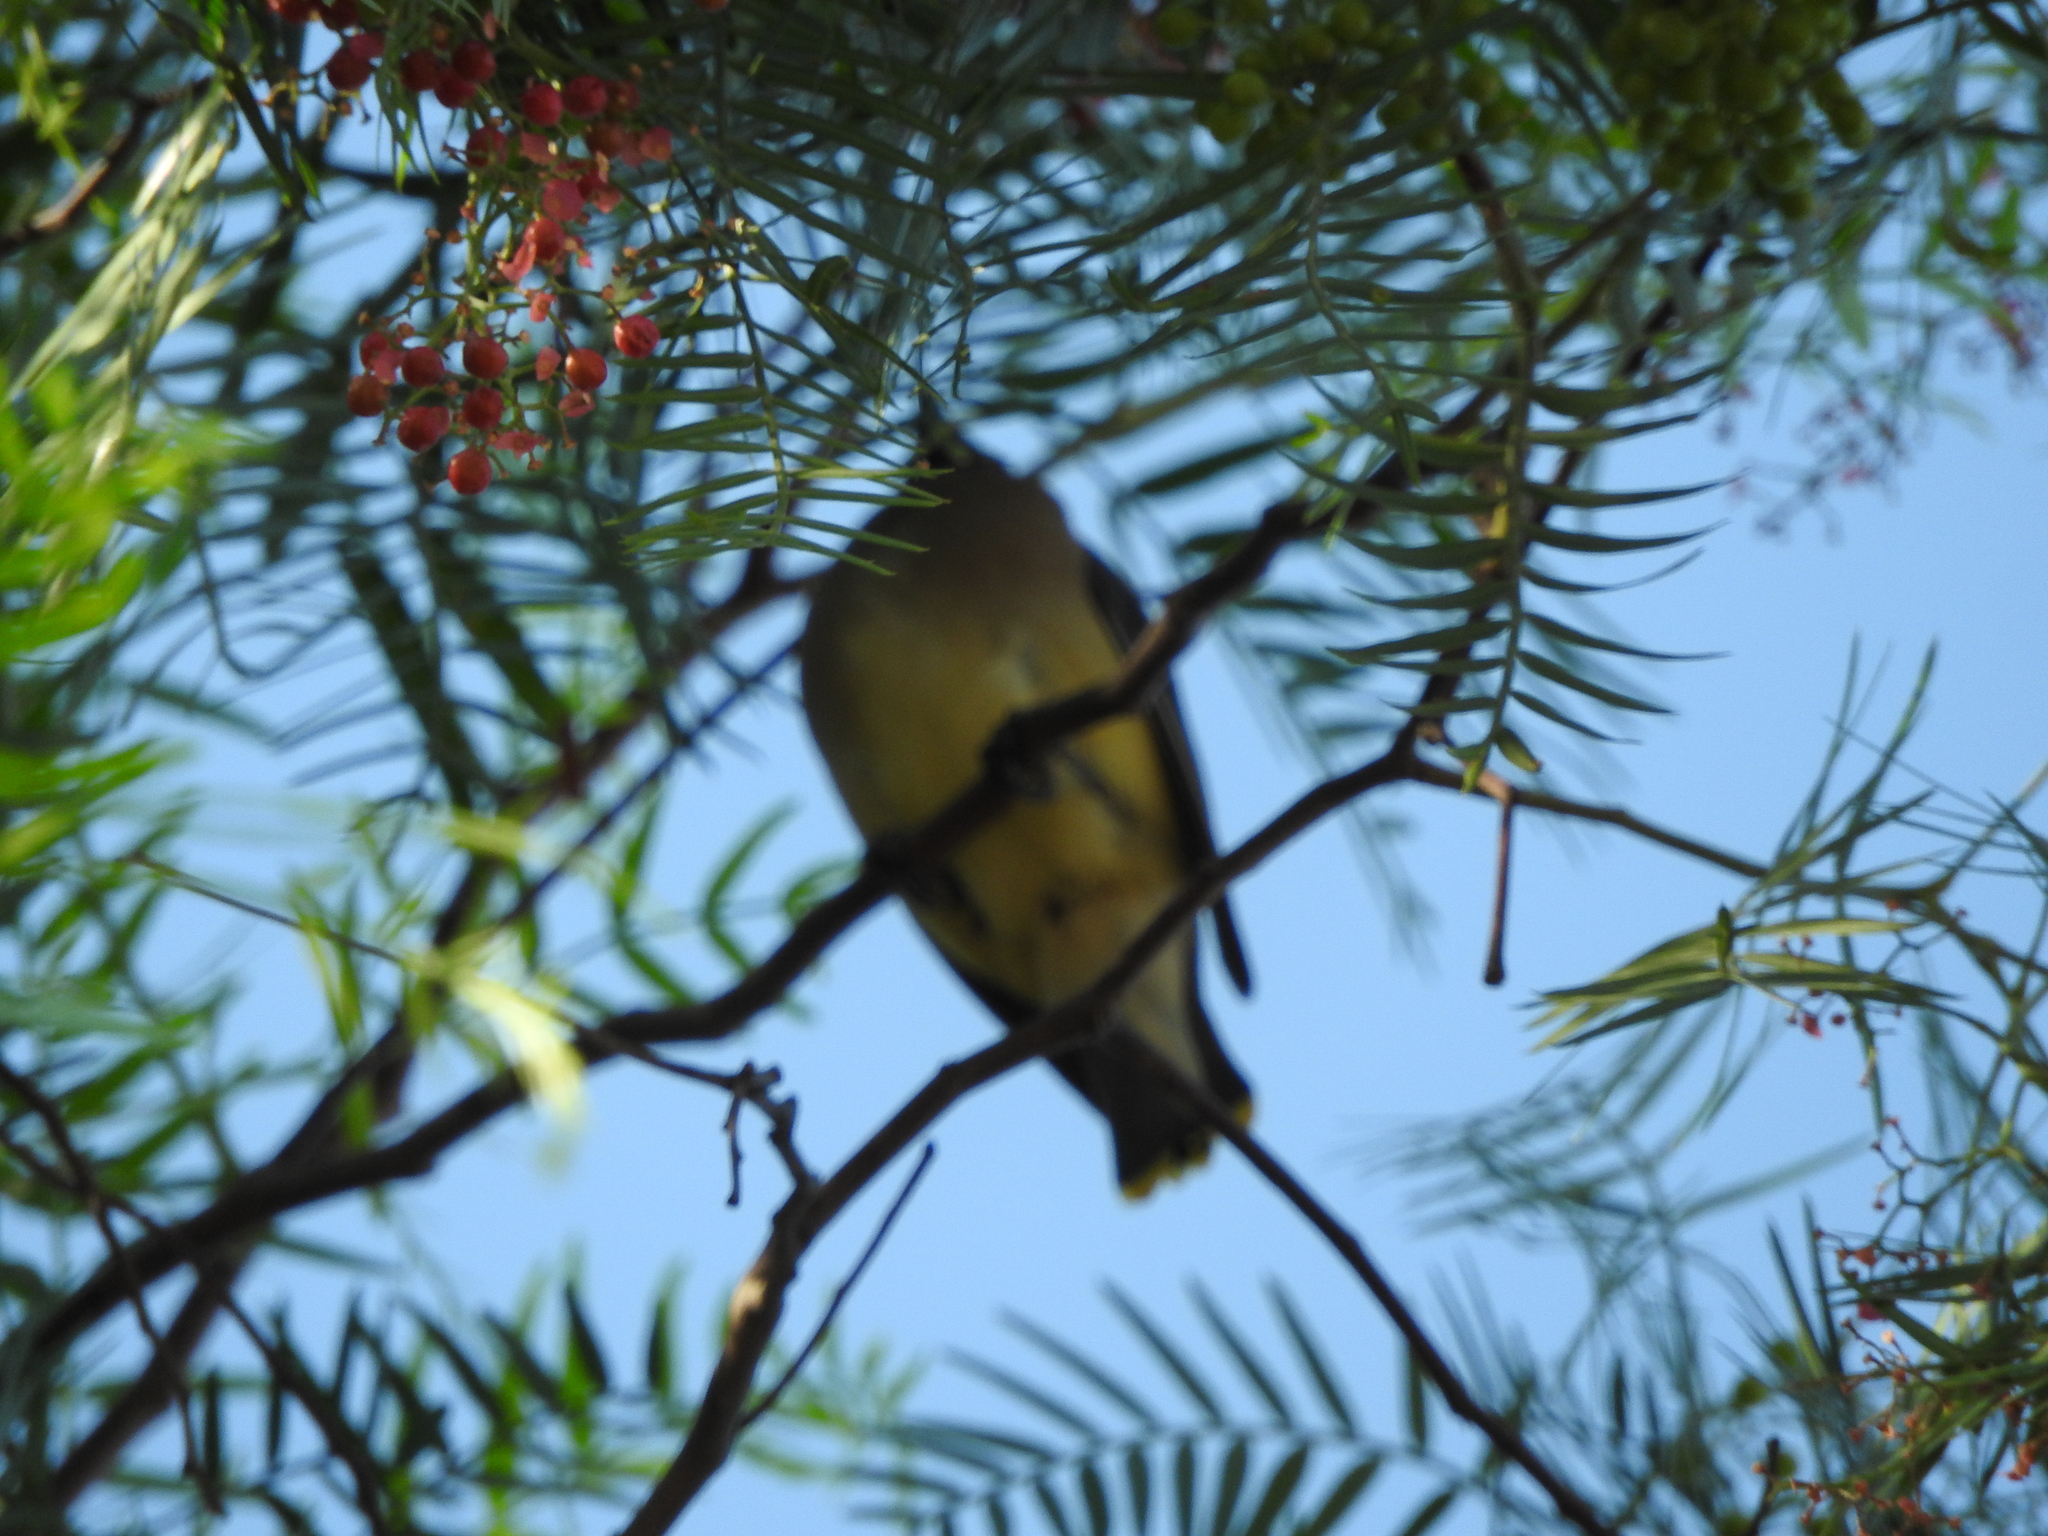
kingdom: Animalia
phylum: Chordata
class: Aves
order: Passeriformes
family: Bombycillidae
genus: Bombycilla
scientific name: Bombycilla cedrorum
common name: Cedar waxwing
